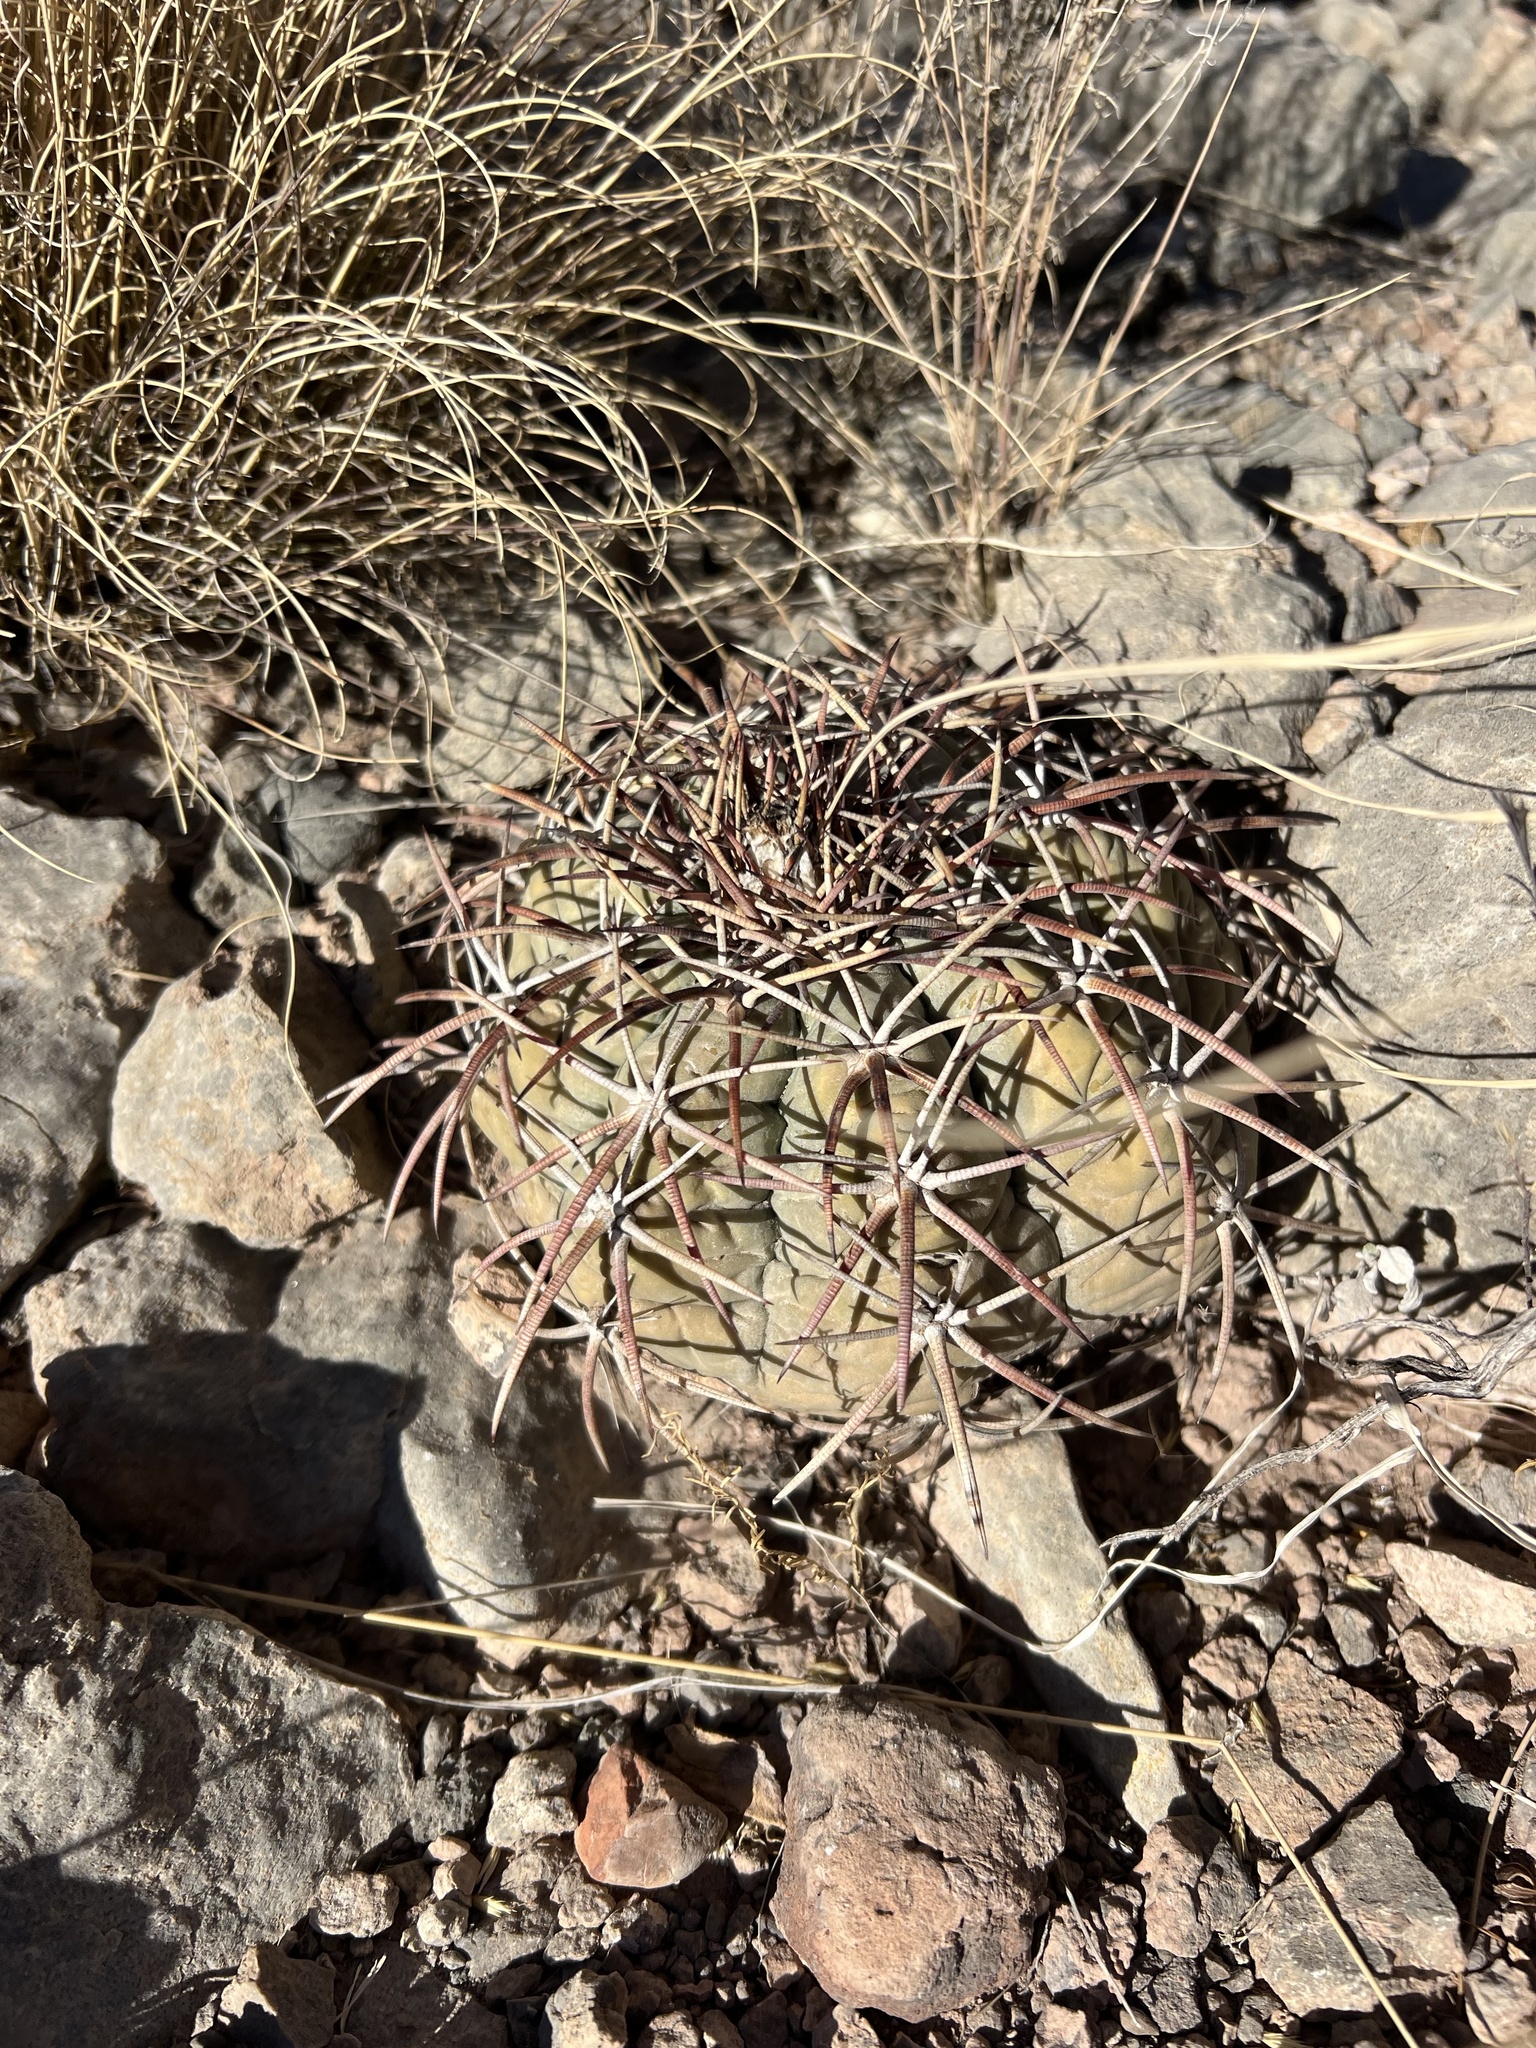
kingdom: Plantae
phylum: Tracheophyta
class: Magnoliopsida
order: Caryophyllales
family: Cactaceae
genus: Echinocactus
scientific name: Echinocactus horizonthalonius
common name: Devilshead
